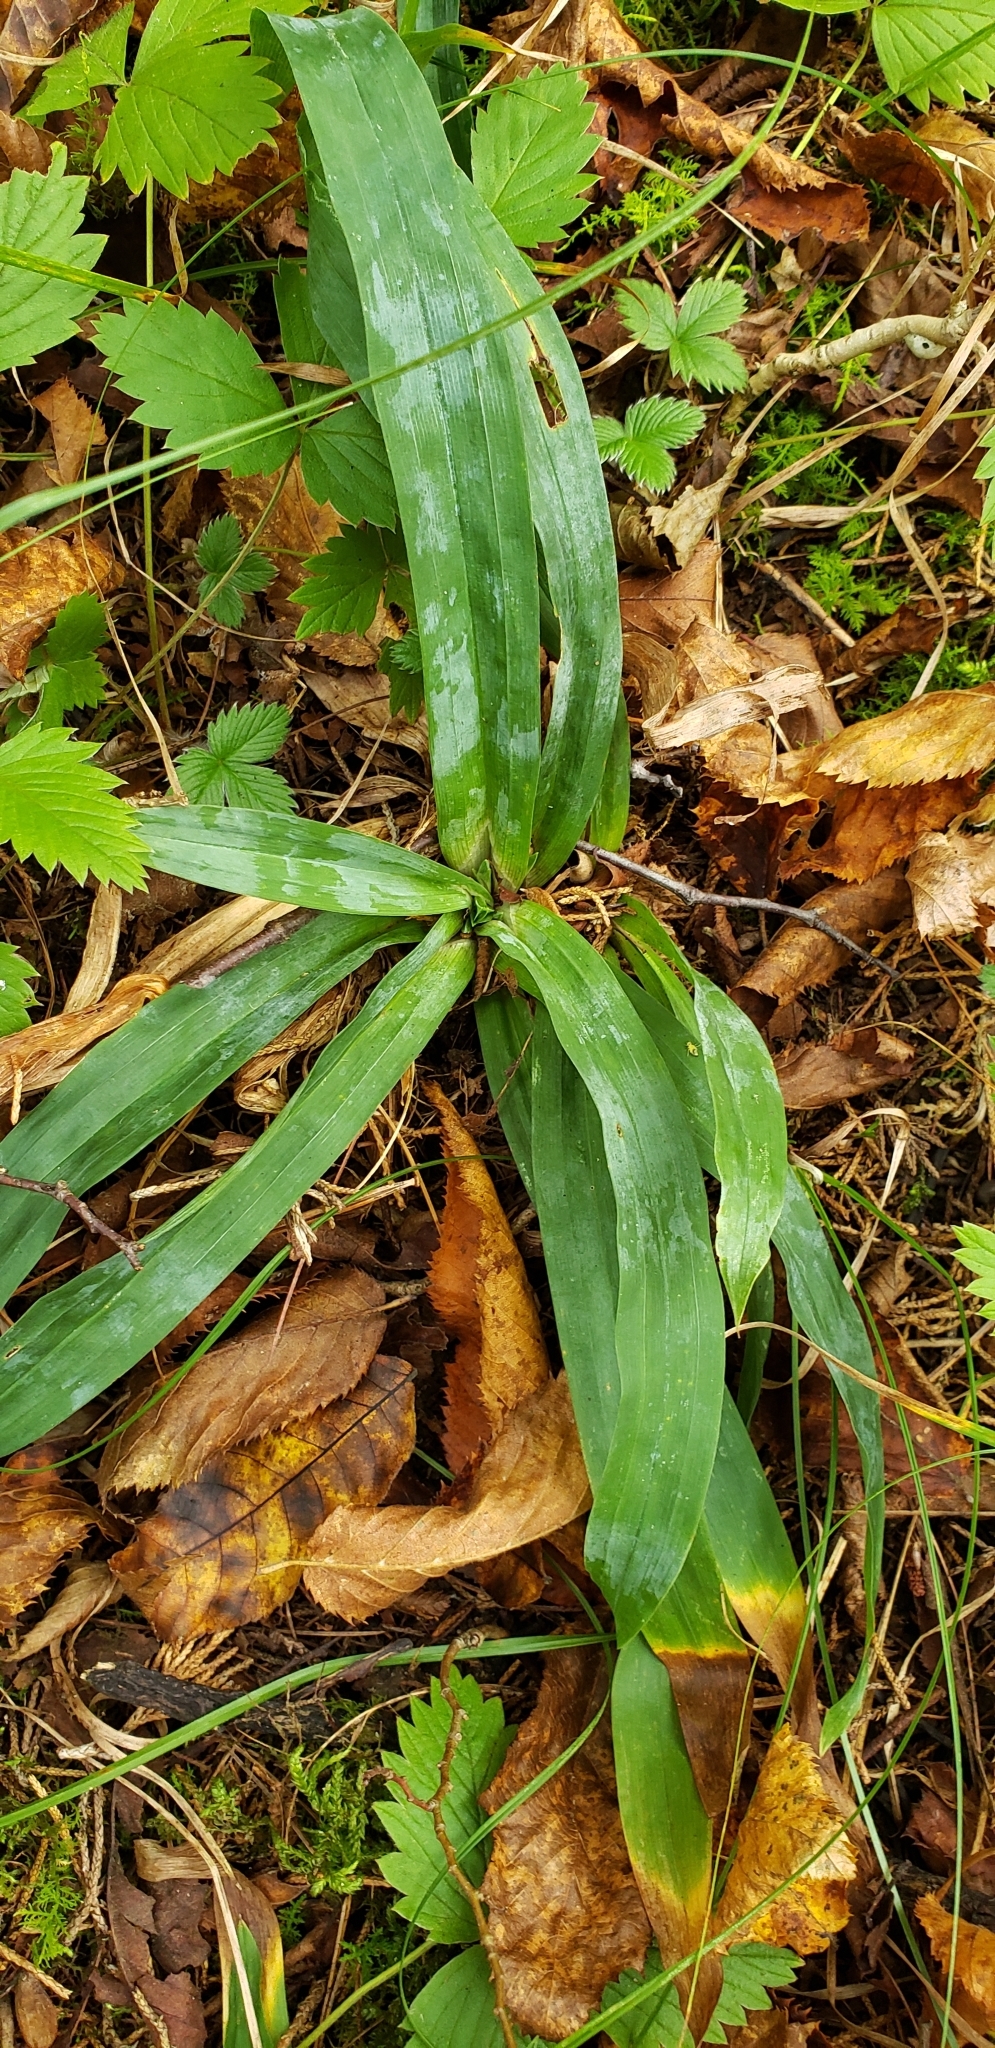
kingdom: Plantae
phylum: Tracheophyta
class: Liliopsida
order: Poales
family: Cyperaceae
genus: Carex
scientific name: Carex platyphylla
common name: Broad-leaved sedge
